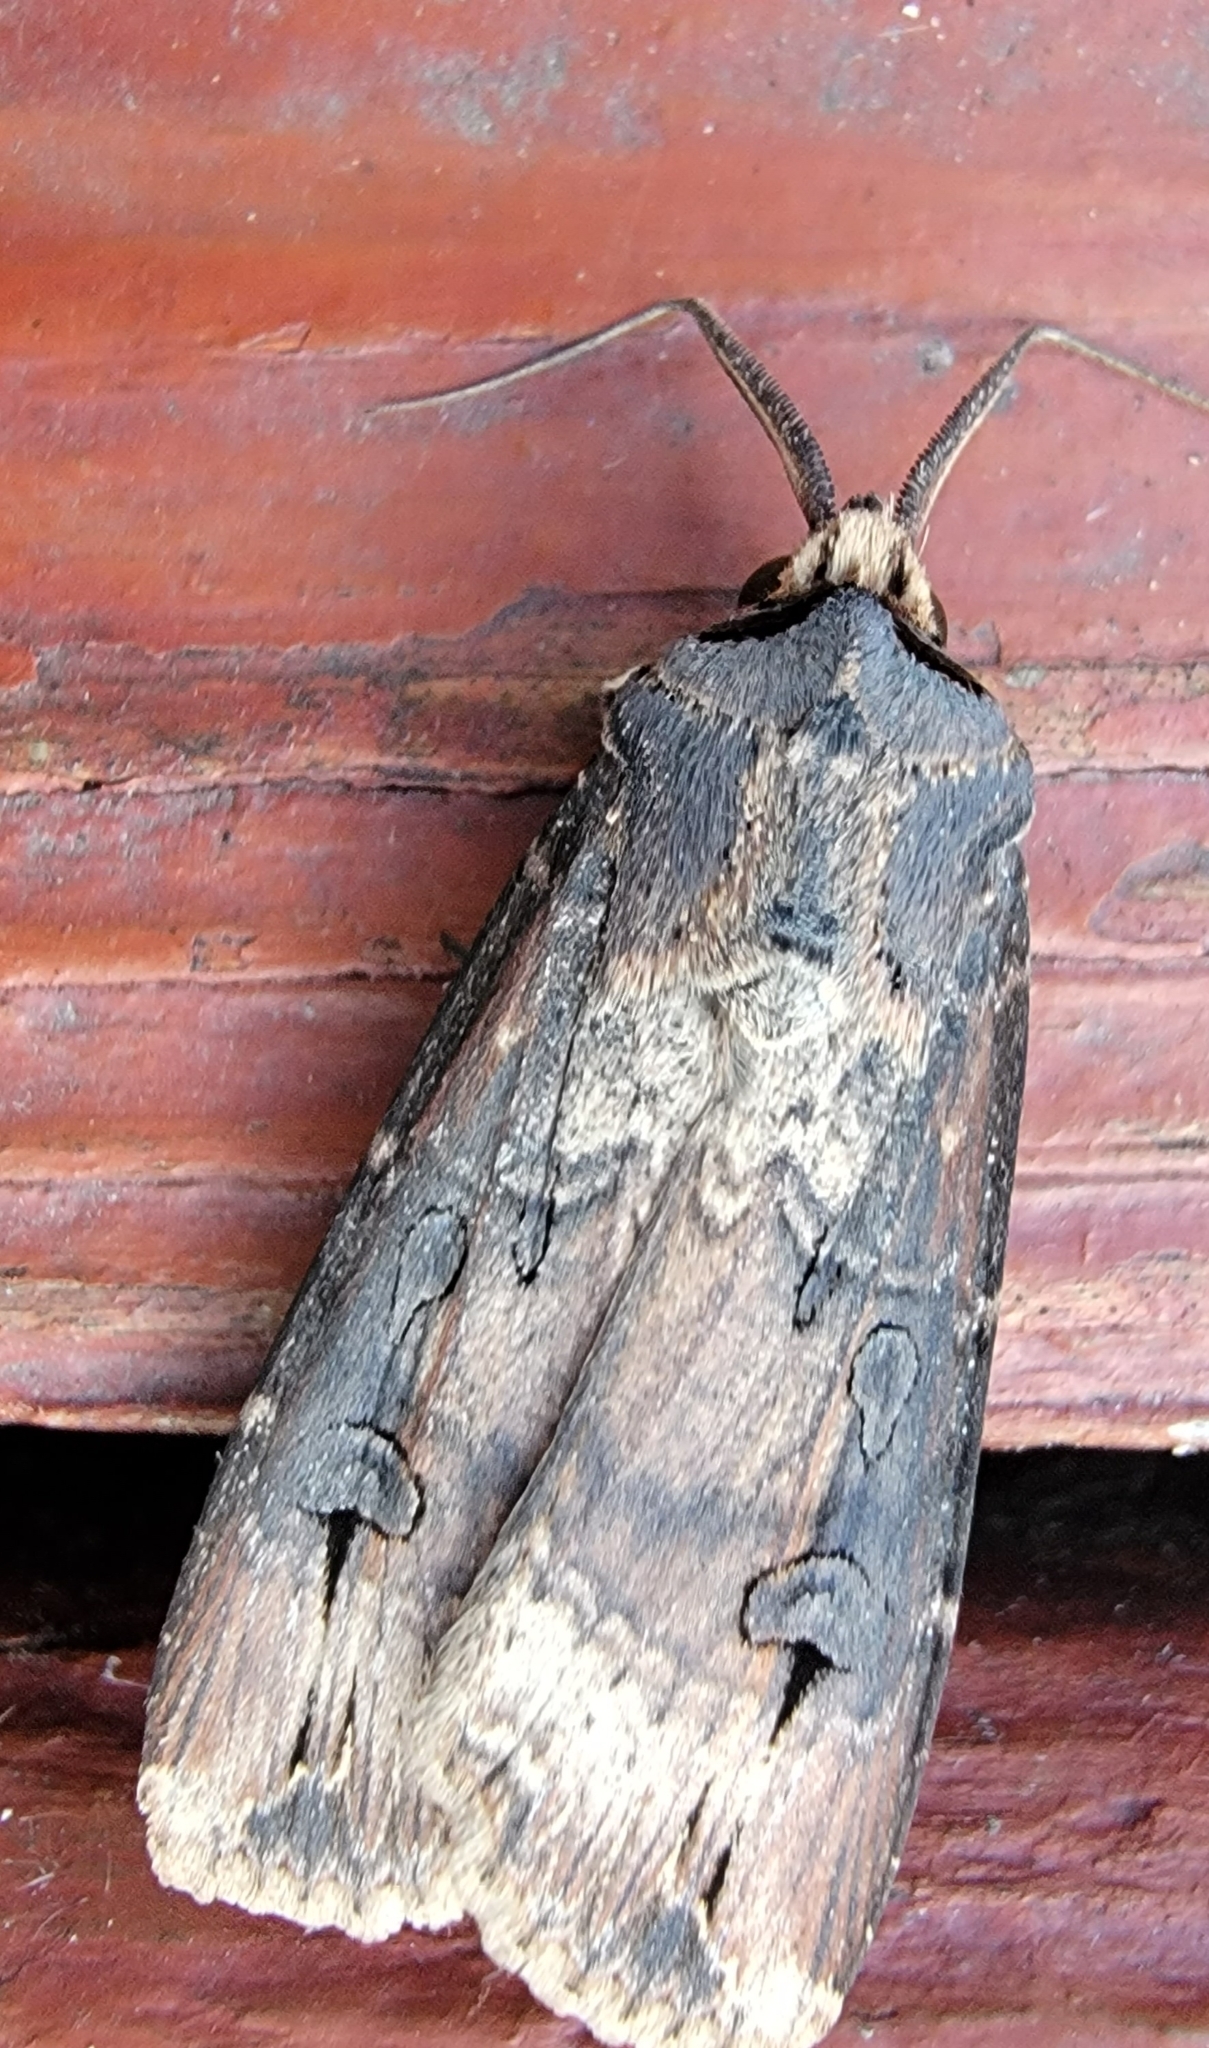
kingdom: Animalia
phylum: Arthropoda
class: Insecta
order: Lepidoptera
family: Noctuidae
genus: Agrotis
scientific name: Agrotis ipsilon
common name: Dark sword-grass
